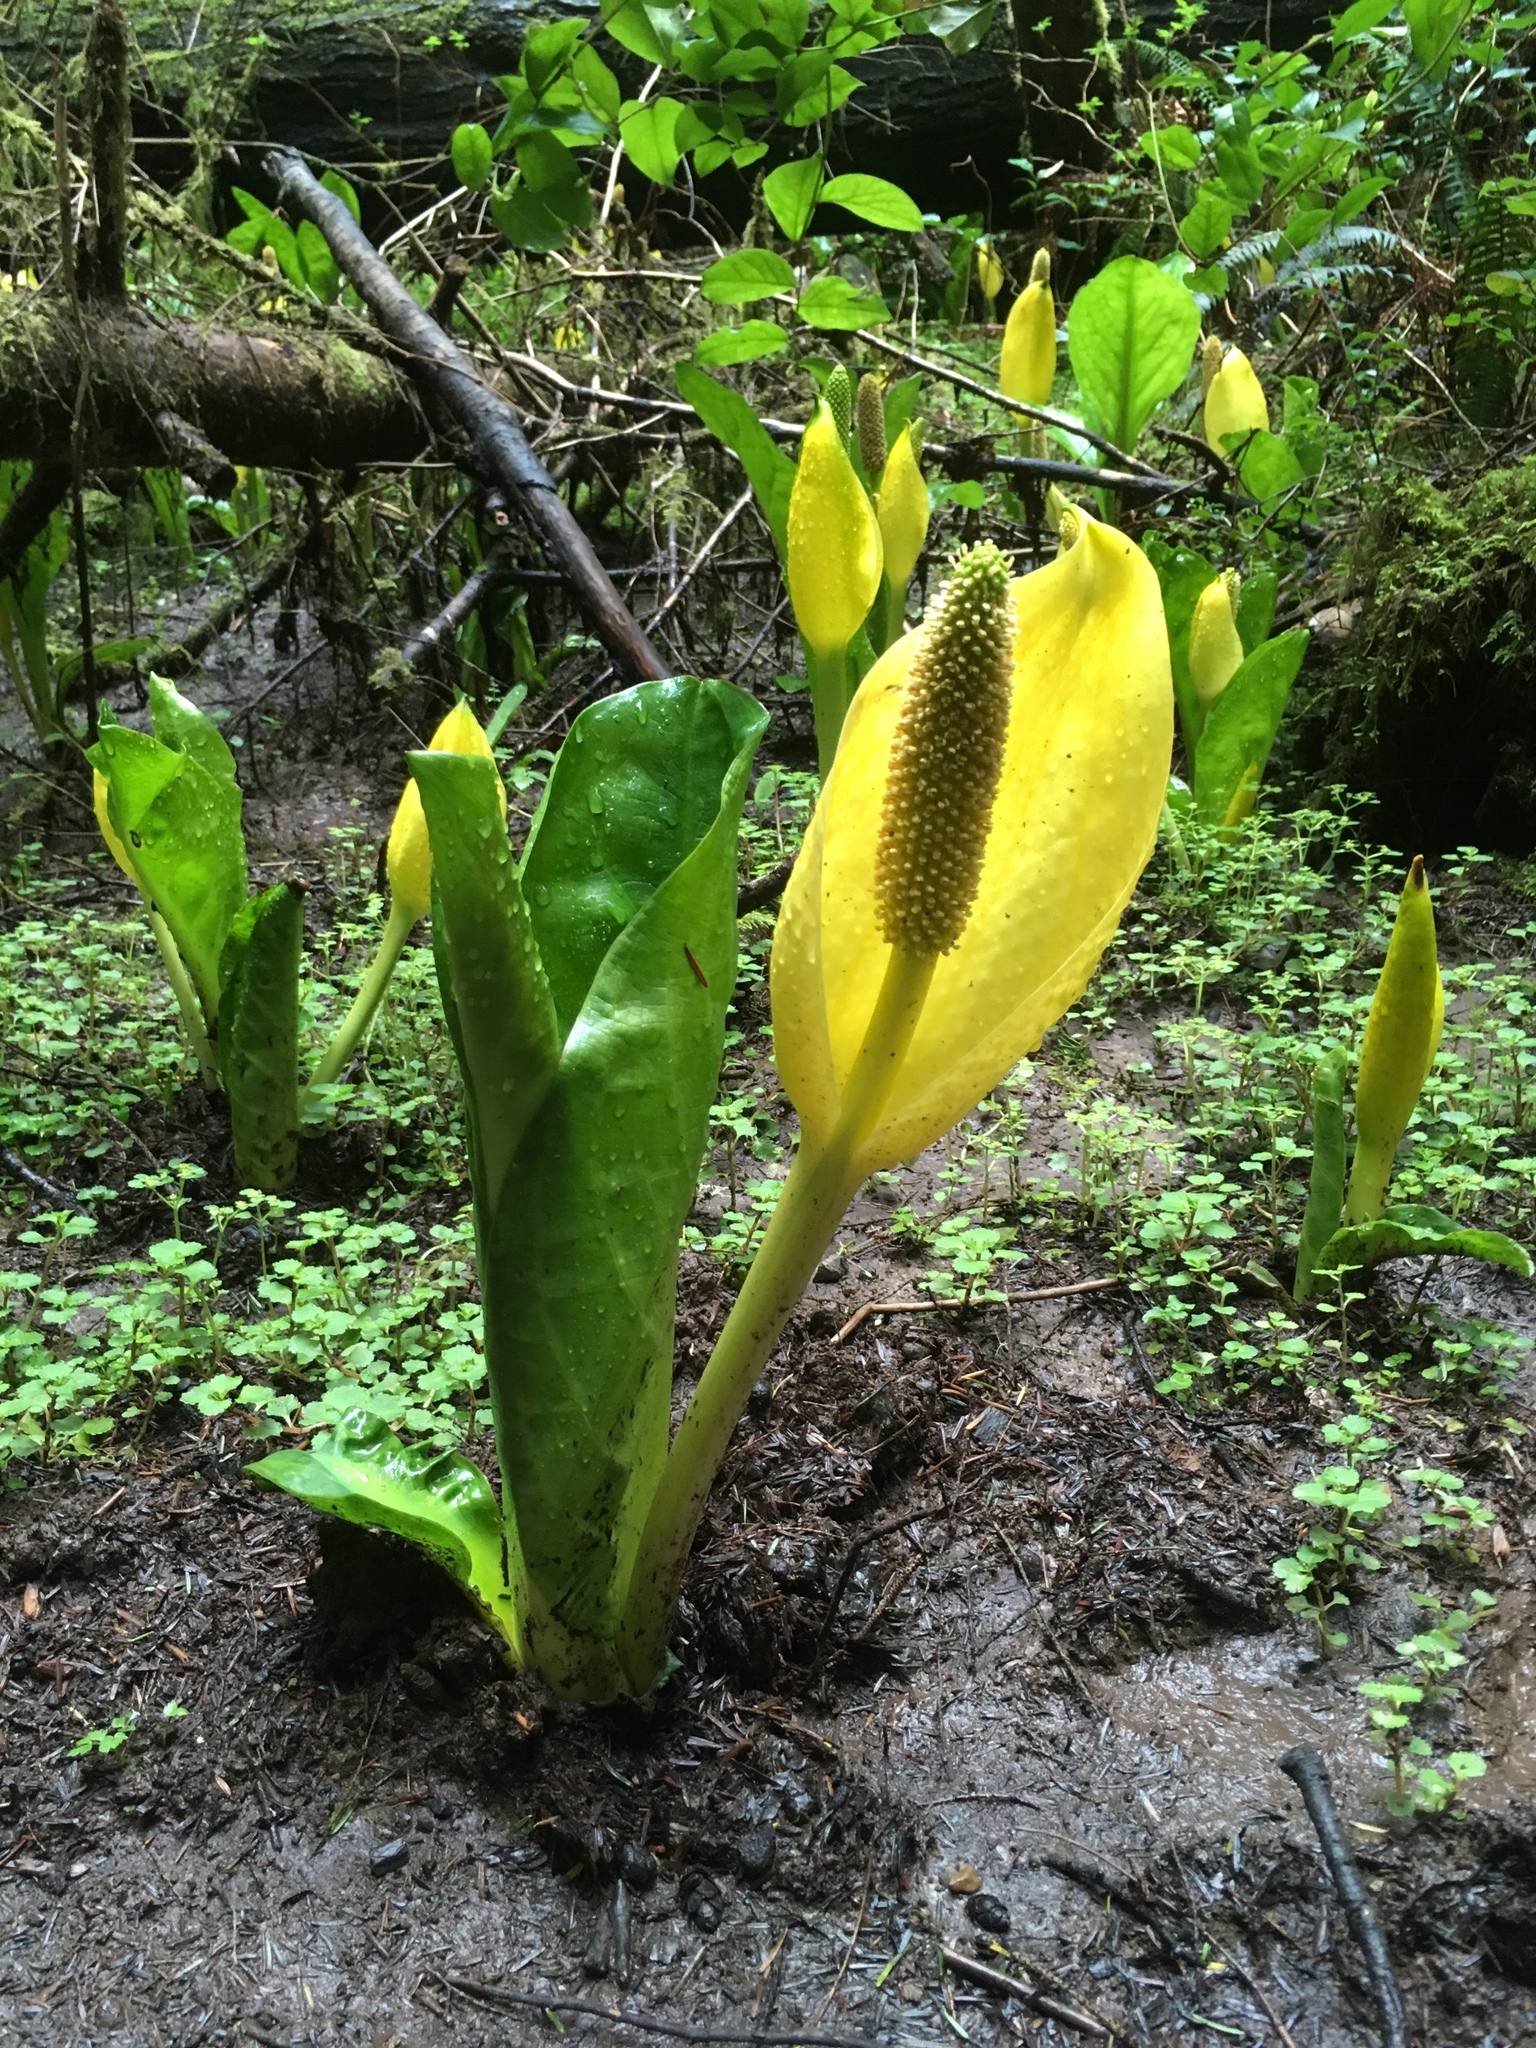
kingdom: Plantae
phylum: Tracheophyta
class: Liliopsida
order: Alismatales
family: Araceae
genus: Lysichiton
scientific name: Lysichiton americanus
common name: American skunk cabbage
